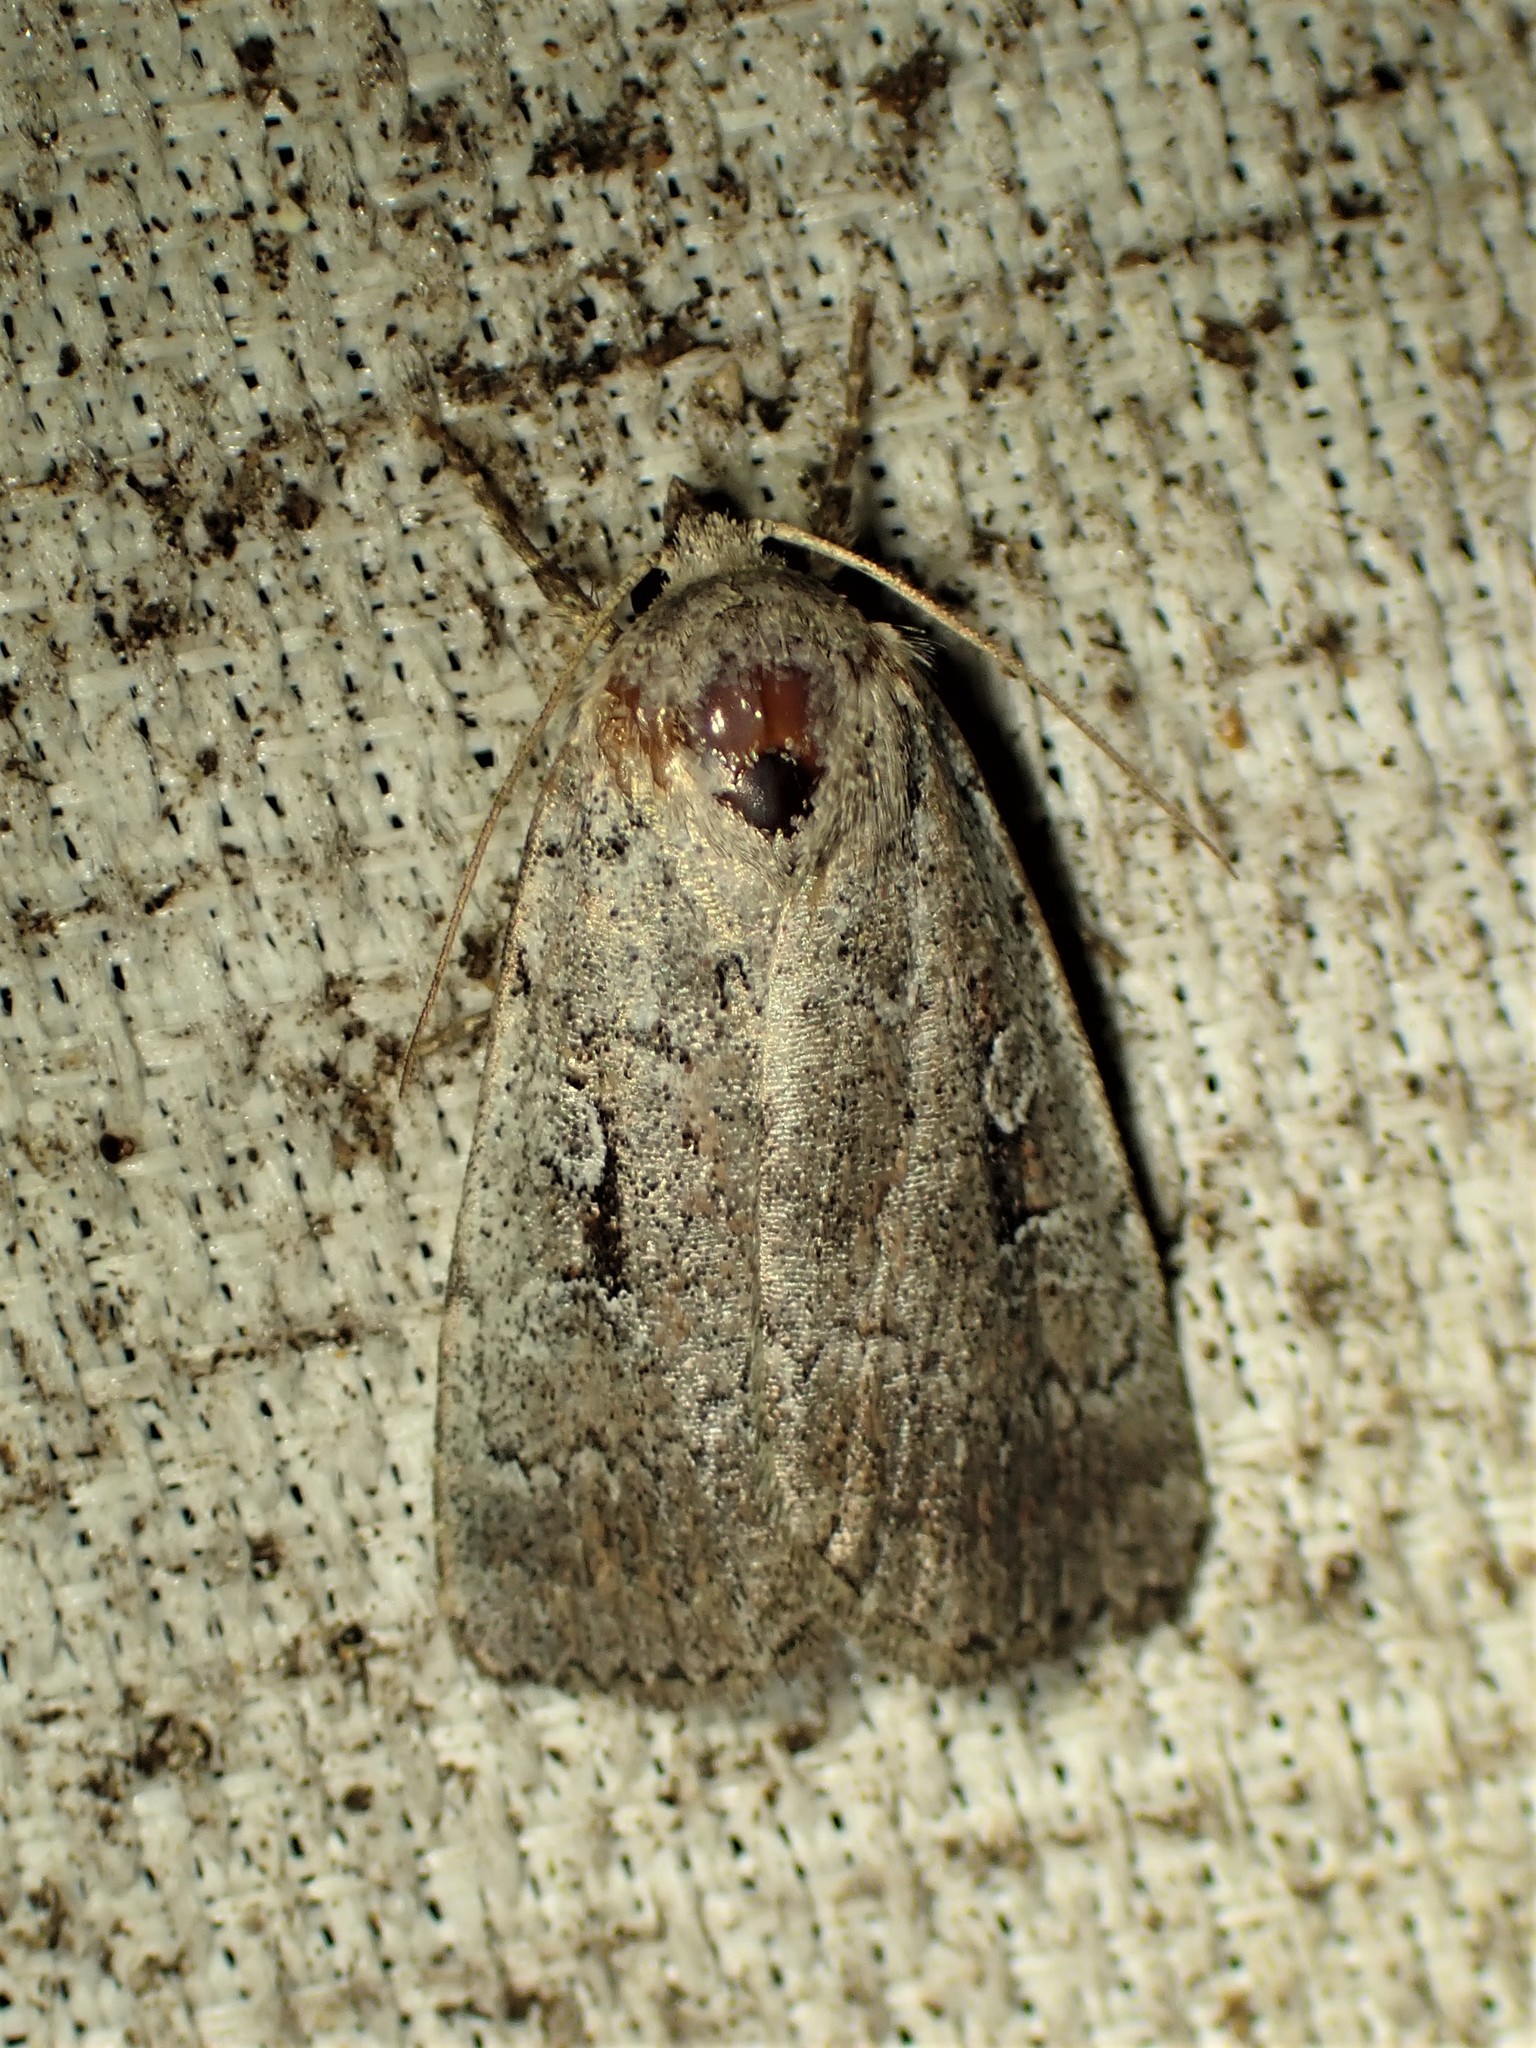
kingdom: Animalia
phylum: Arthropoda
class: Insecta
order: Lepidoptera
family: Noctuidae
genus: Coenophila
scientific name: Coenophila opacifrons
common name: Blueberry dart
